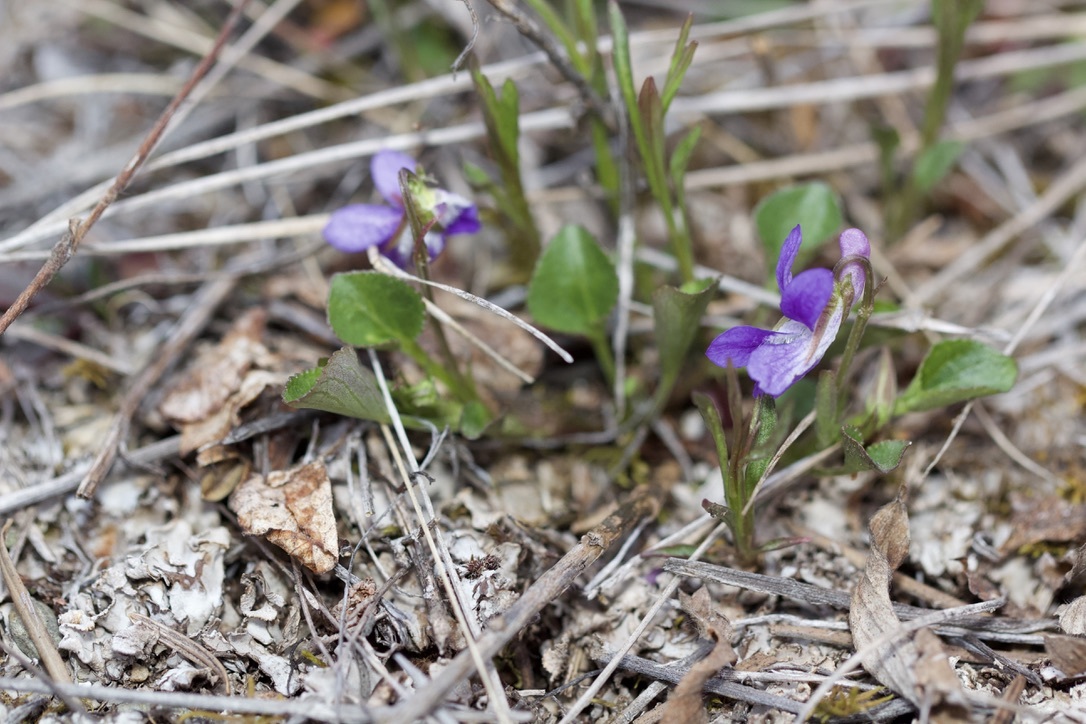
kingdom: Plantae
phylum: Tracheophyta
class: Magnoliopsida
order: Malpighiales
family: Violaceae
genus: Viola
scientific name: Viola adunca
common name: Sand violet
